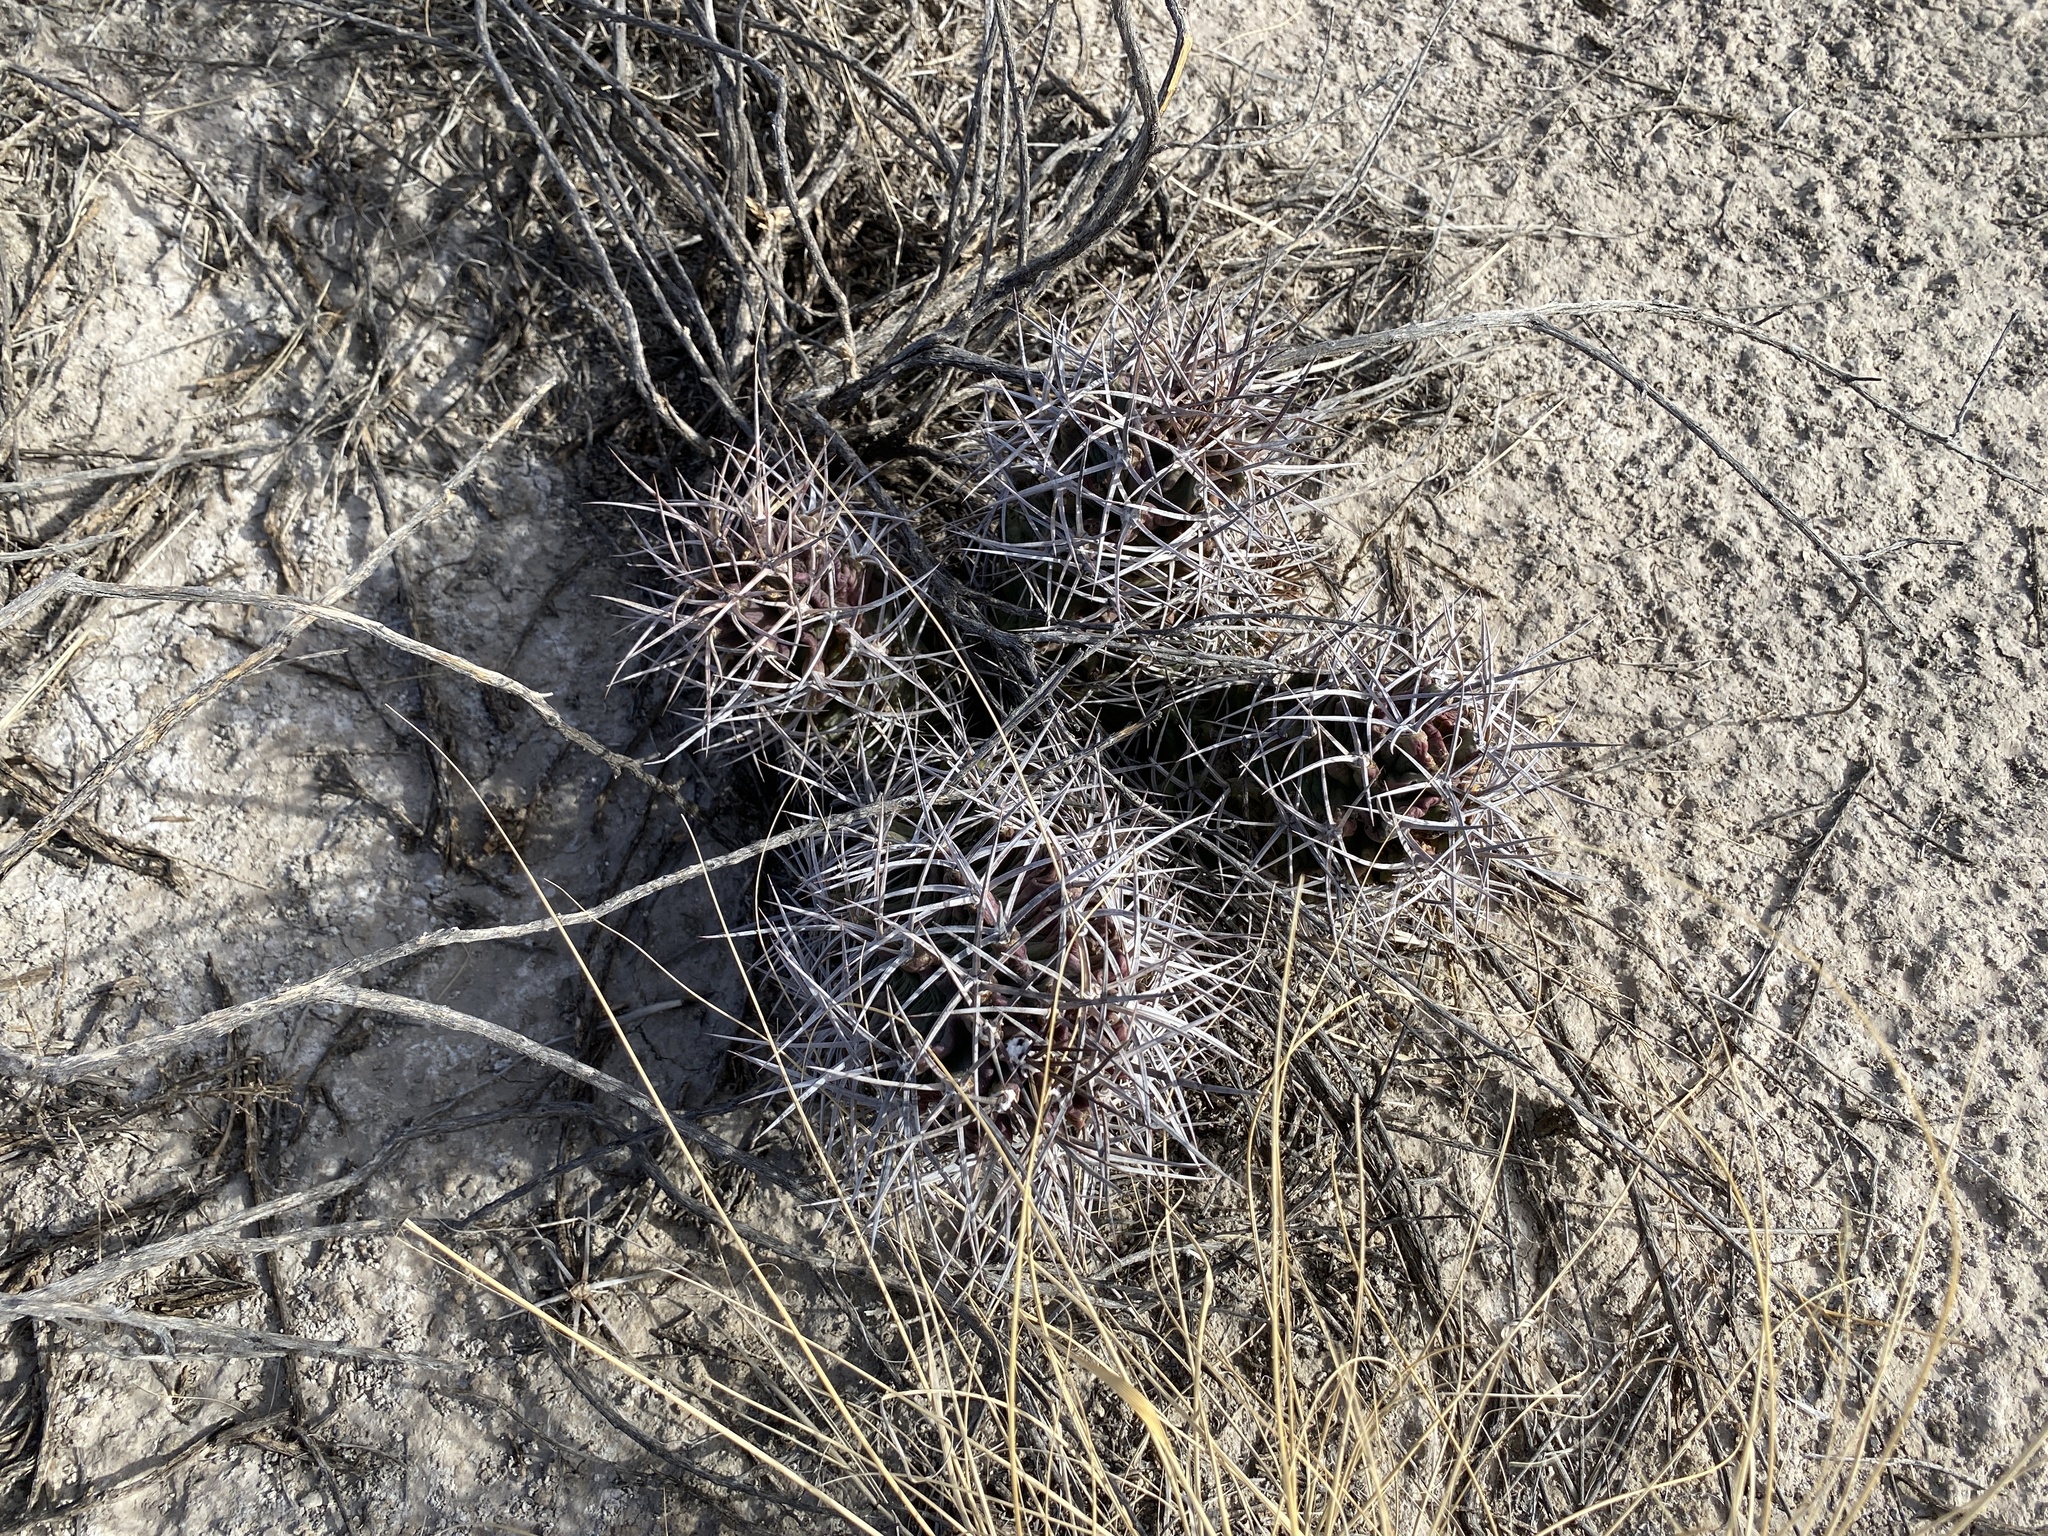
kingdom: Plantae
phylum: Tracheophyta
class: Magnoliopsida
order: Caryophyllales
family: Cactaceae
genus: Echinocereus
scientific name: Echinocereus triglochidiatus
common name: Claretcup hedgehog
